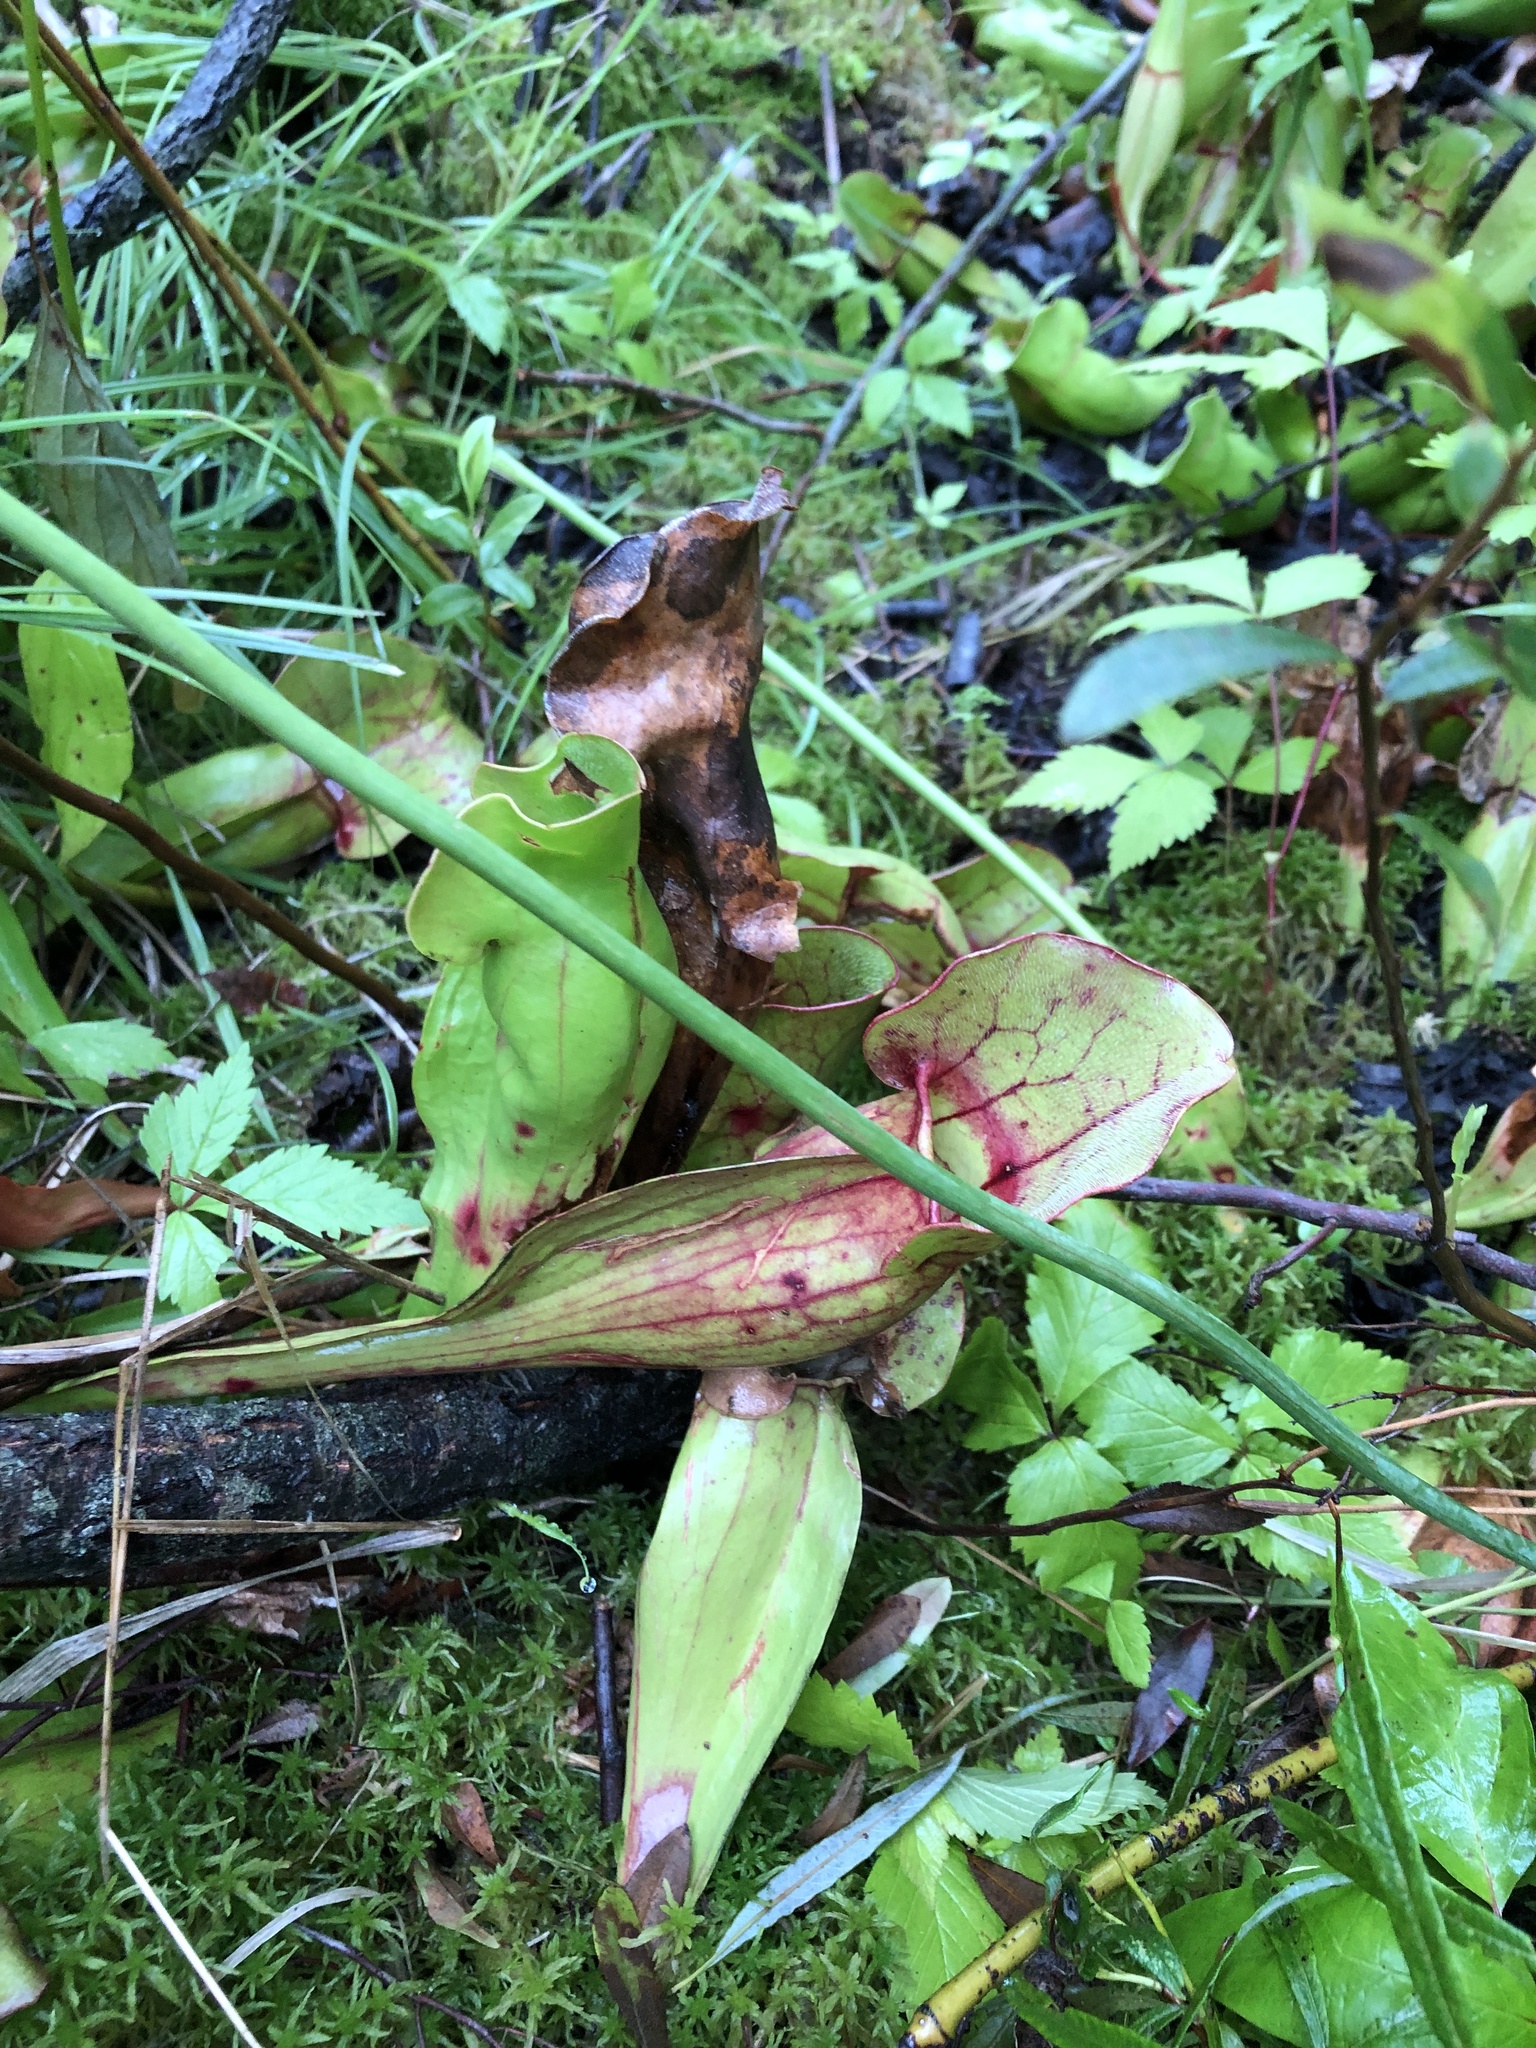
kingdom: Plantae
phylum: Tracheophyta
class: Magnoliopsida
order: Ericales
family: Sarraceniaceae
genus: Sarracenia
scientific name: Sarracenia purpurea
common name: Pitcherplant
